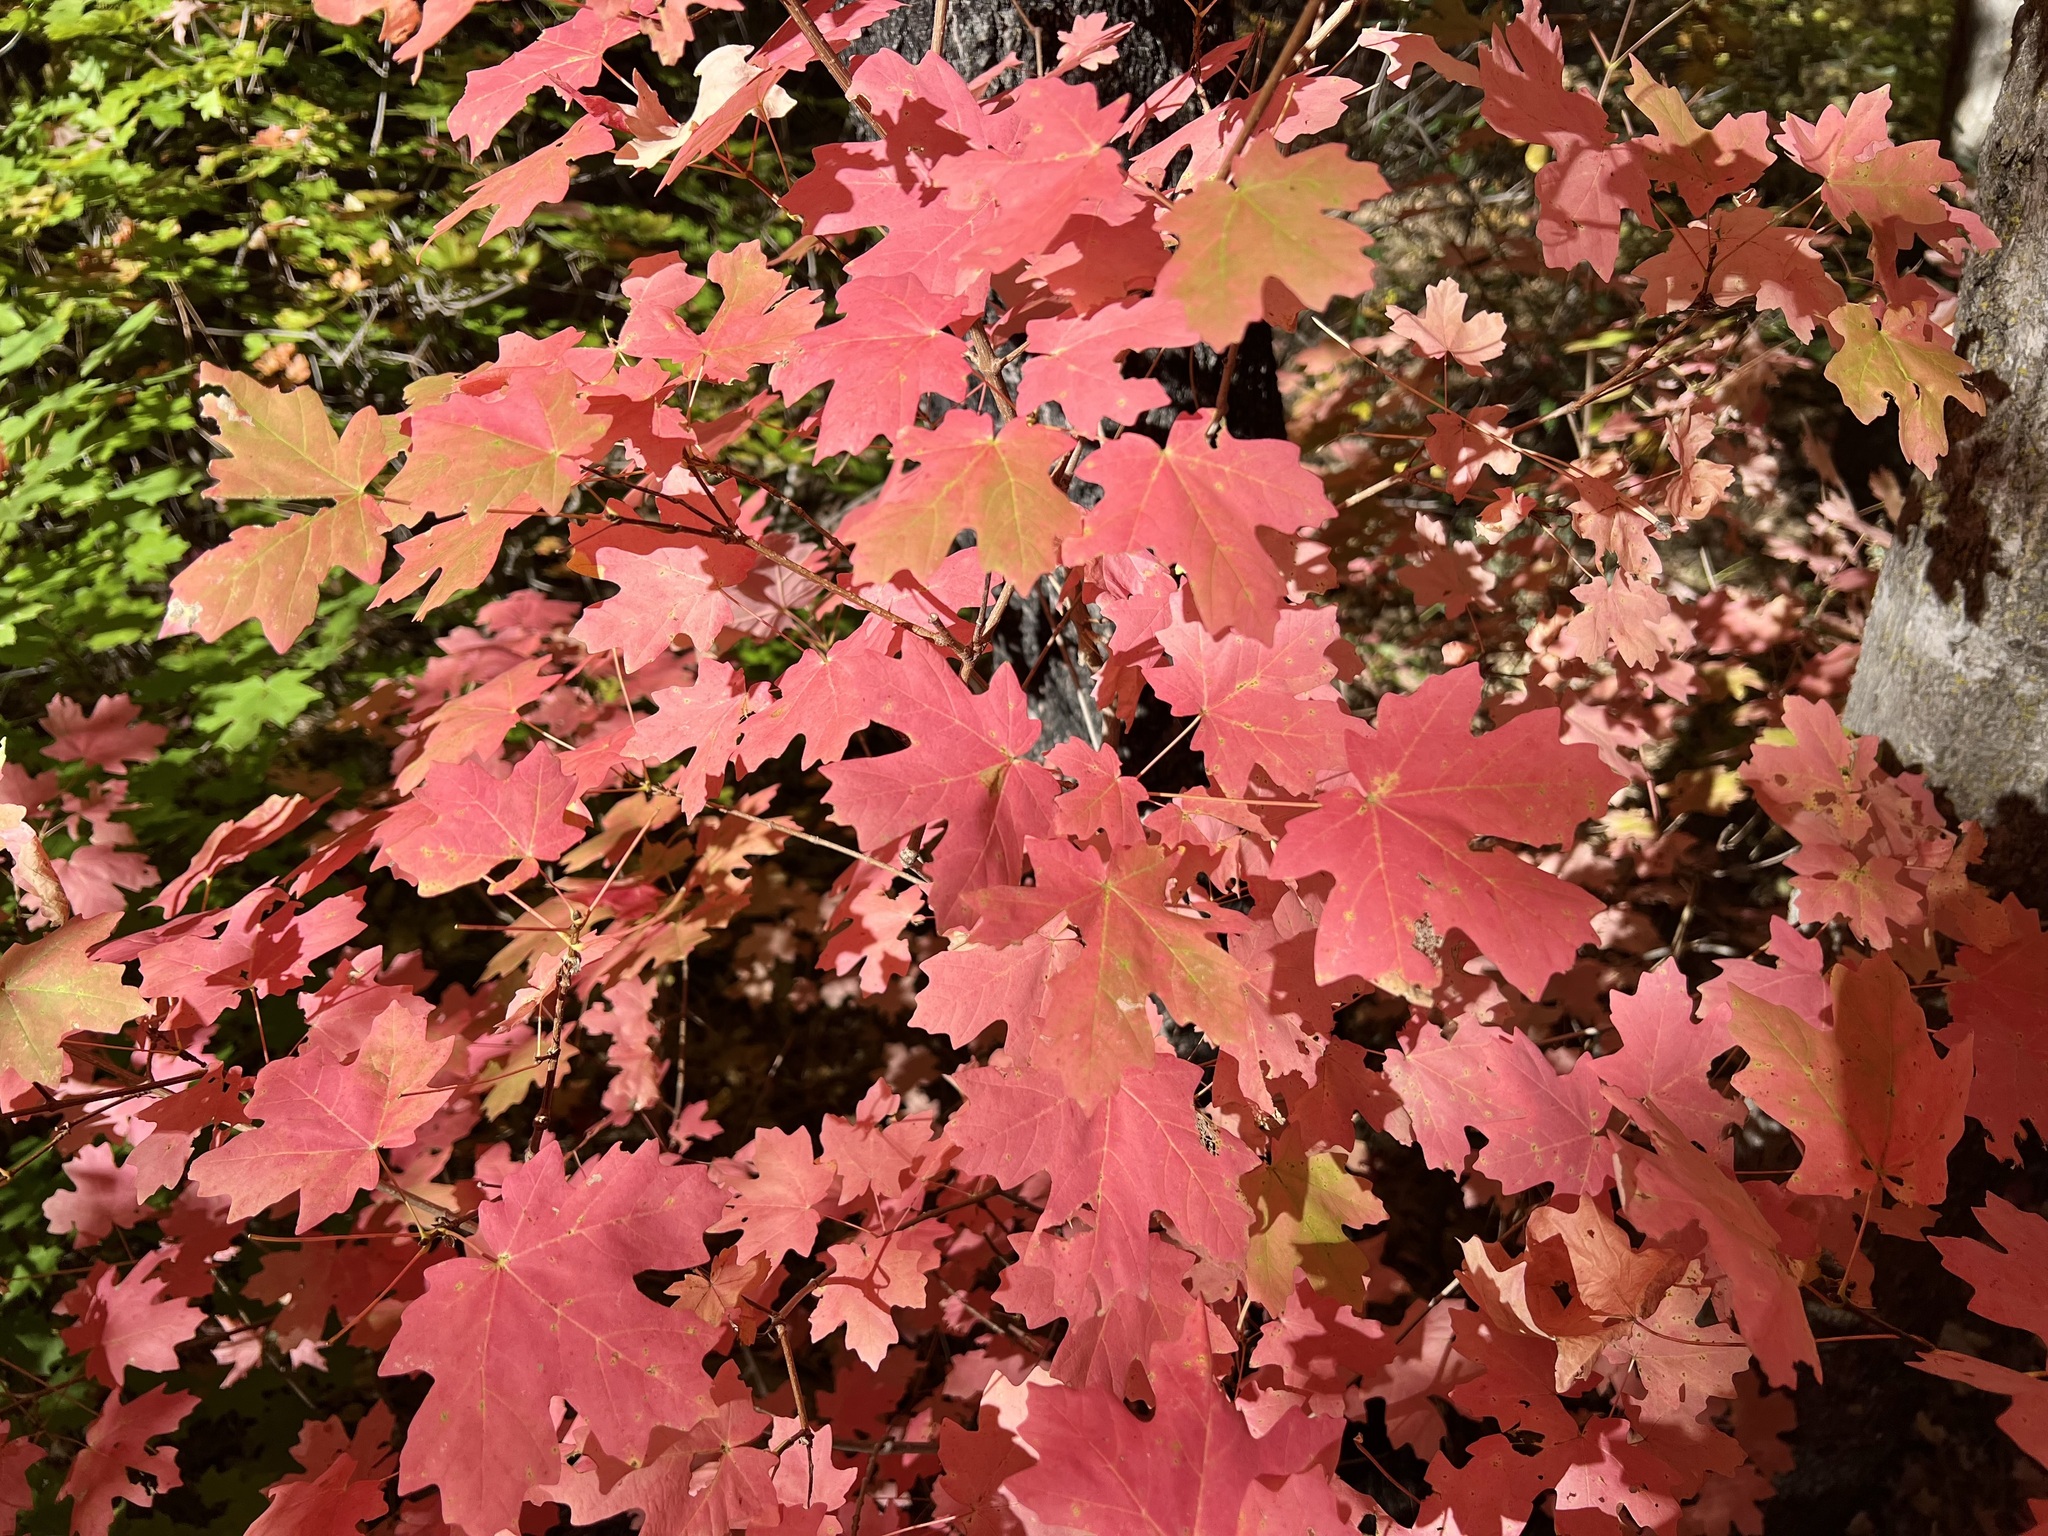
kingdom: Plantae
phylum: Tracheophyta
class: Magnoliopsida
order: Sapindales
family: Sapindaceae
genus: Acer
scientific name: Acer grandidentatum
